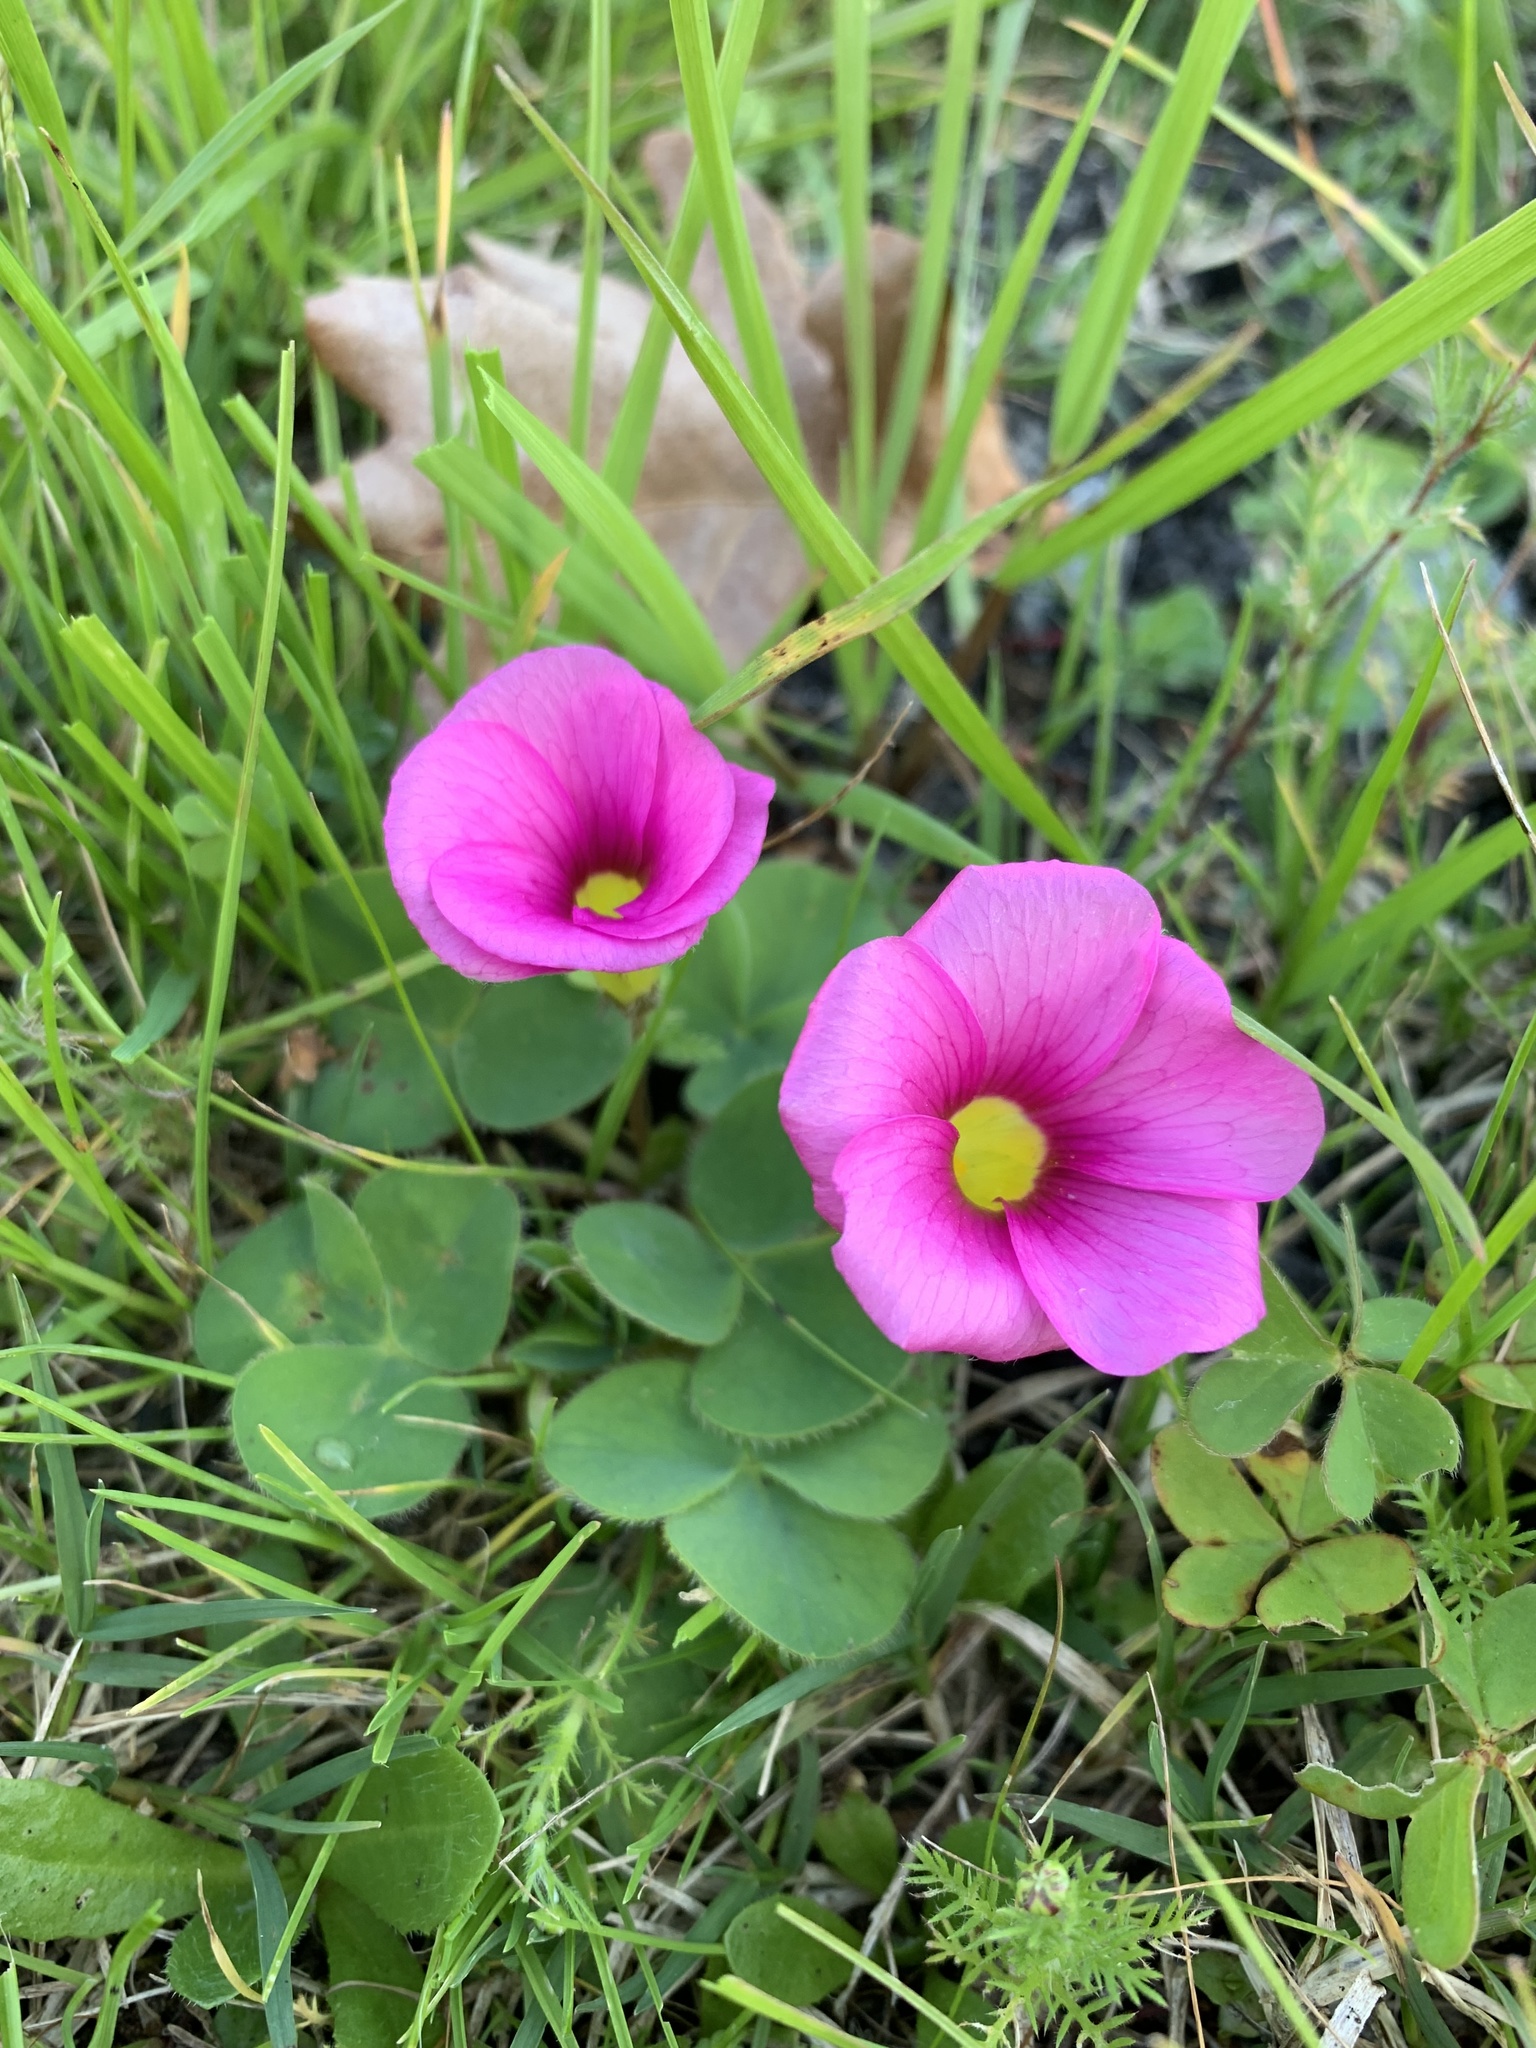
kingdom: Plantae
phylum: Tracheophyta
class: Magnoliopsida
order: Oxalidales
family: Oxalidaceae
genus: Oxalis
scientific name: Oxalis purpurea
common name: Purple woodsorrel
